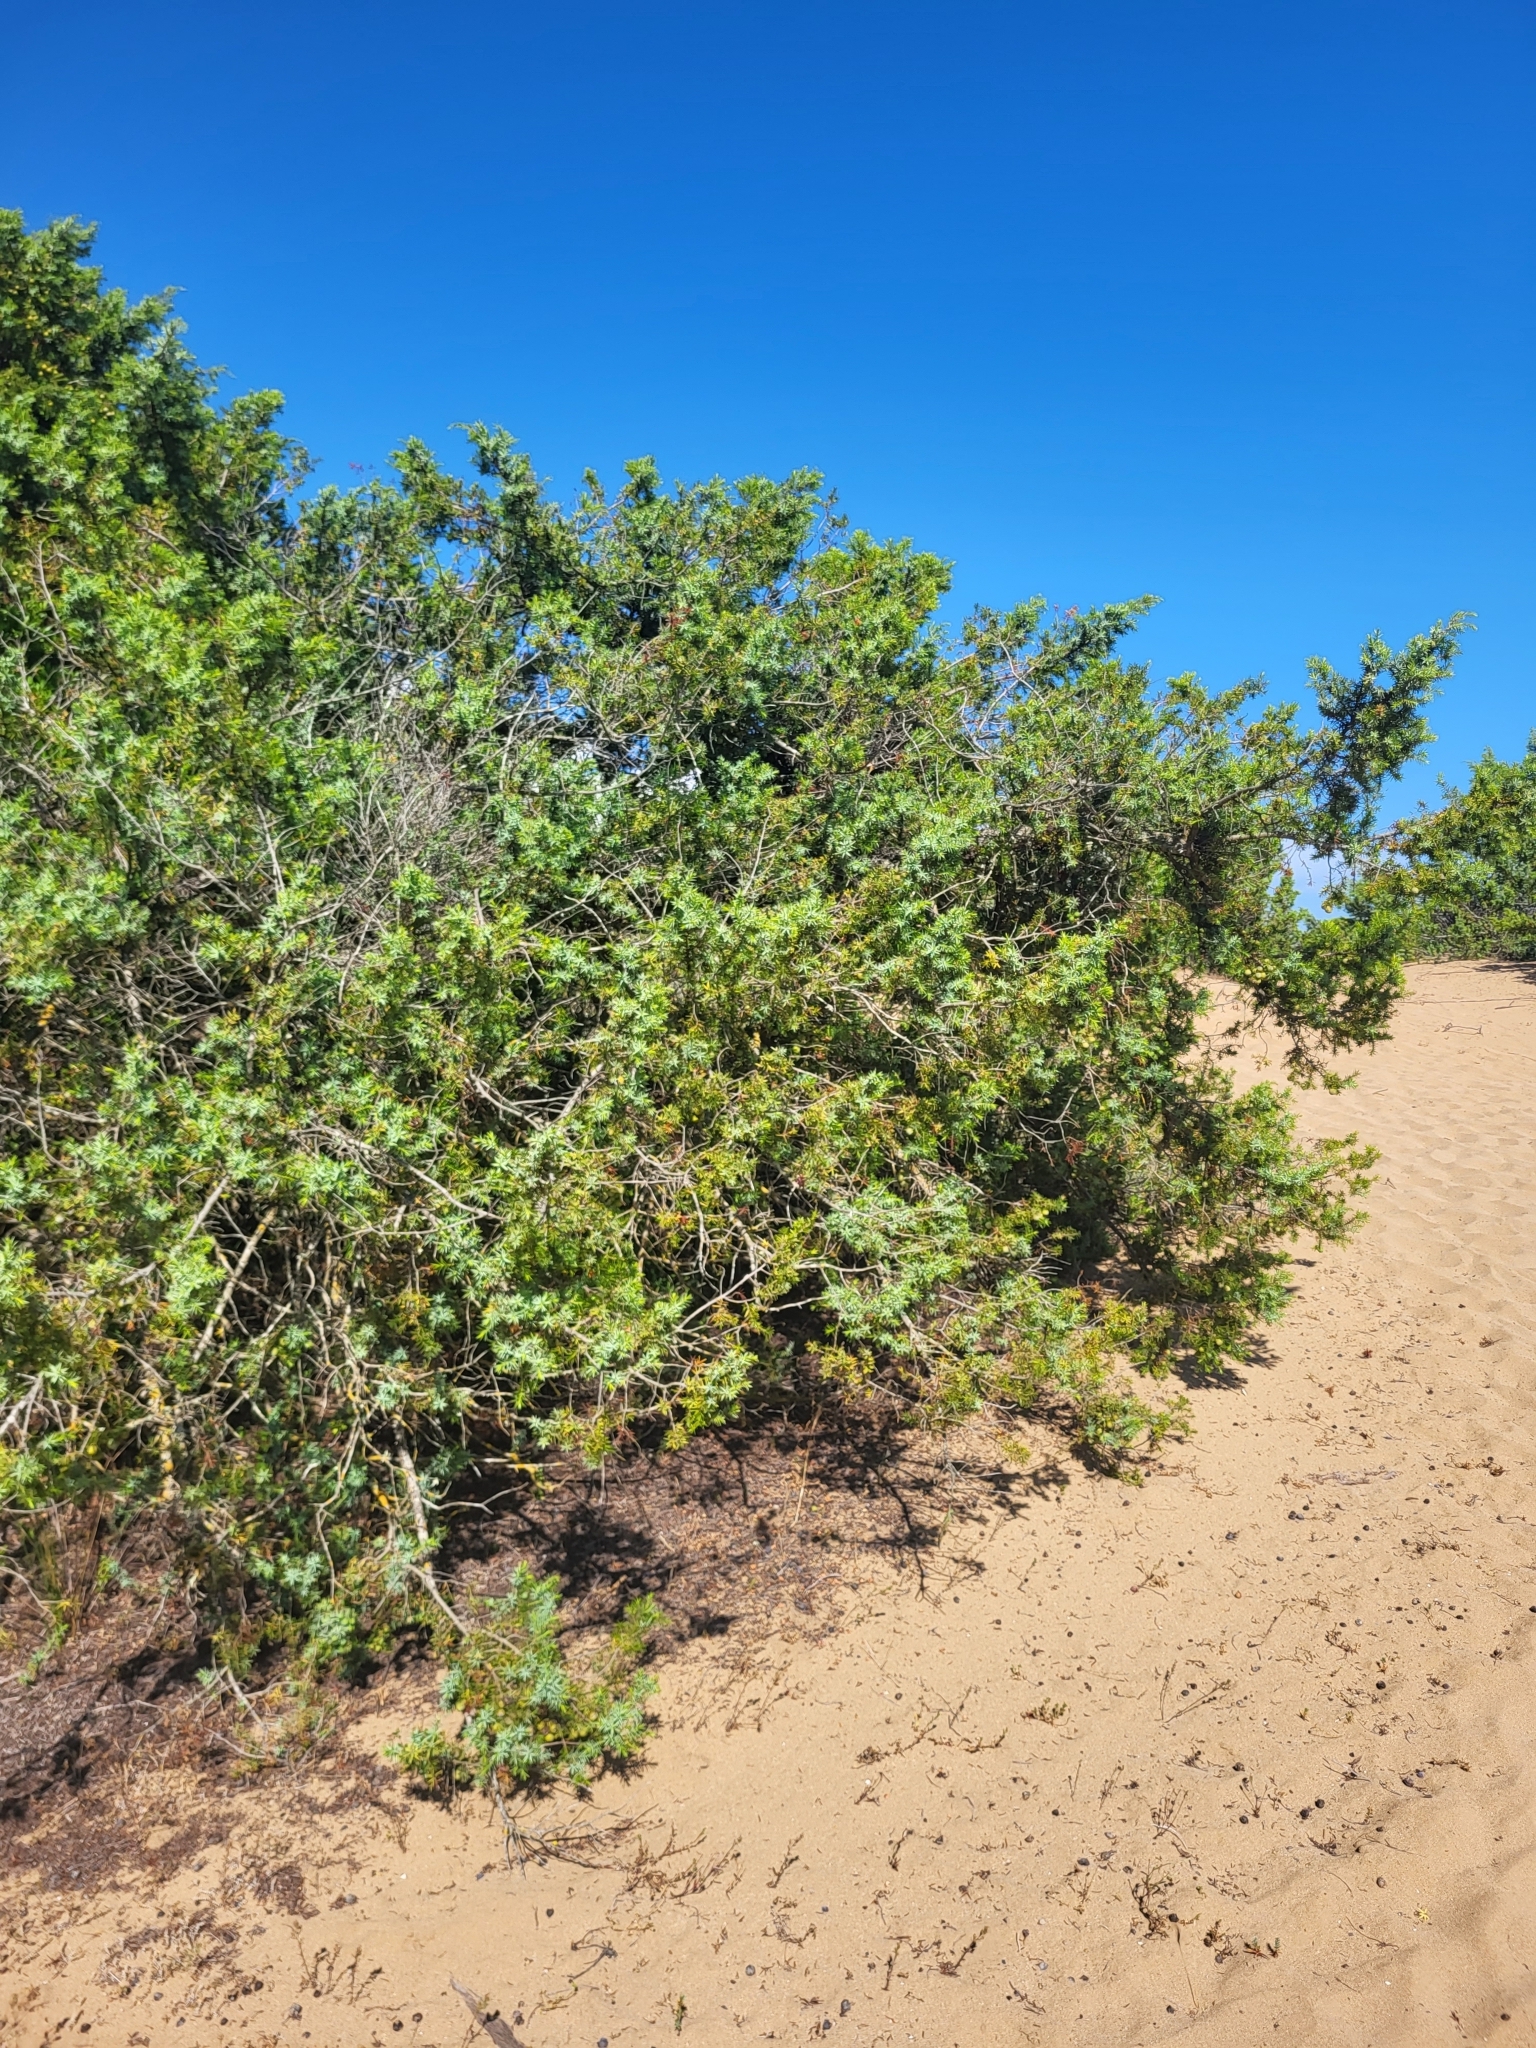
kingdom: Plantae
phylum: Tracheophyta
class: Pinopsida
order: Pinales
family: Cupressaceae
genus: Juniperus
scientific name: Juniperus oxycedrus
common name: Prickly juniper
